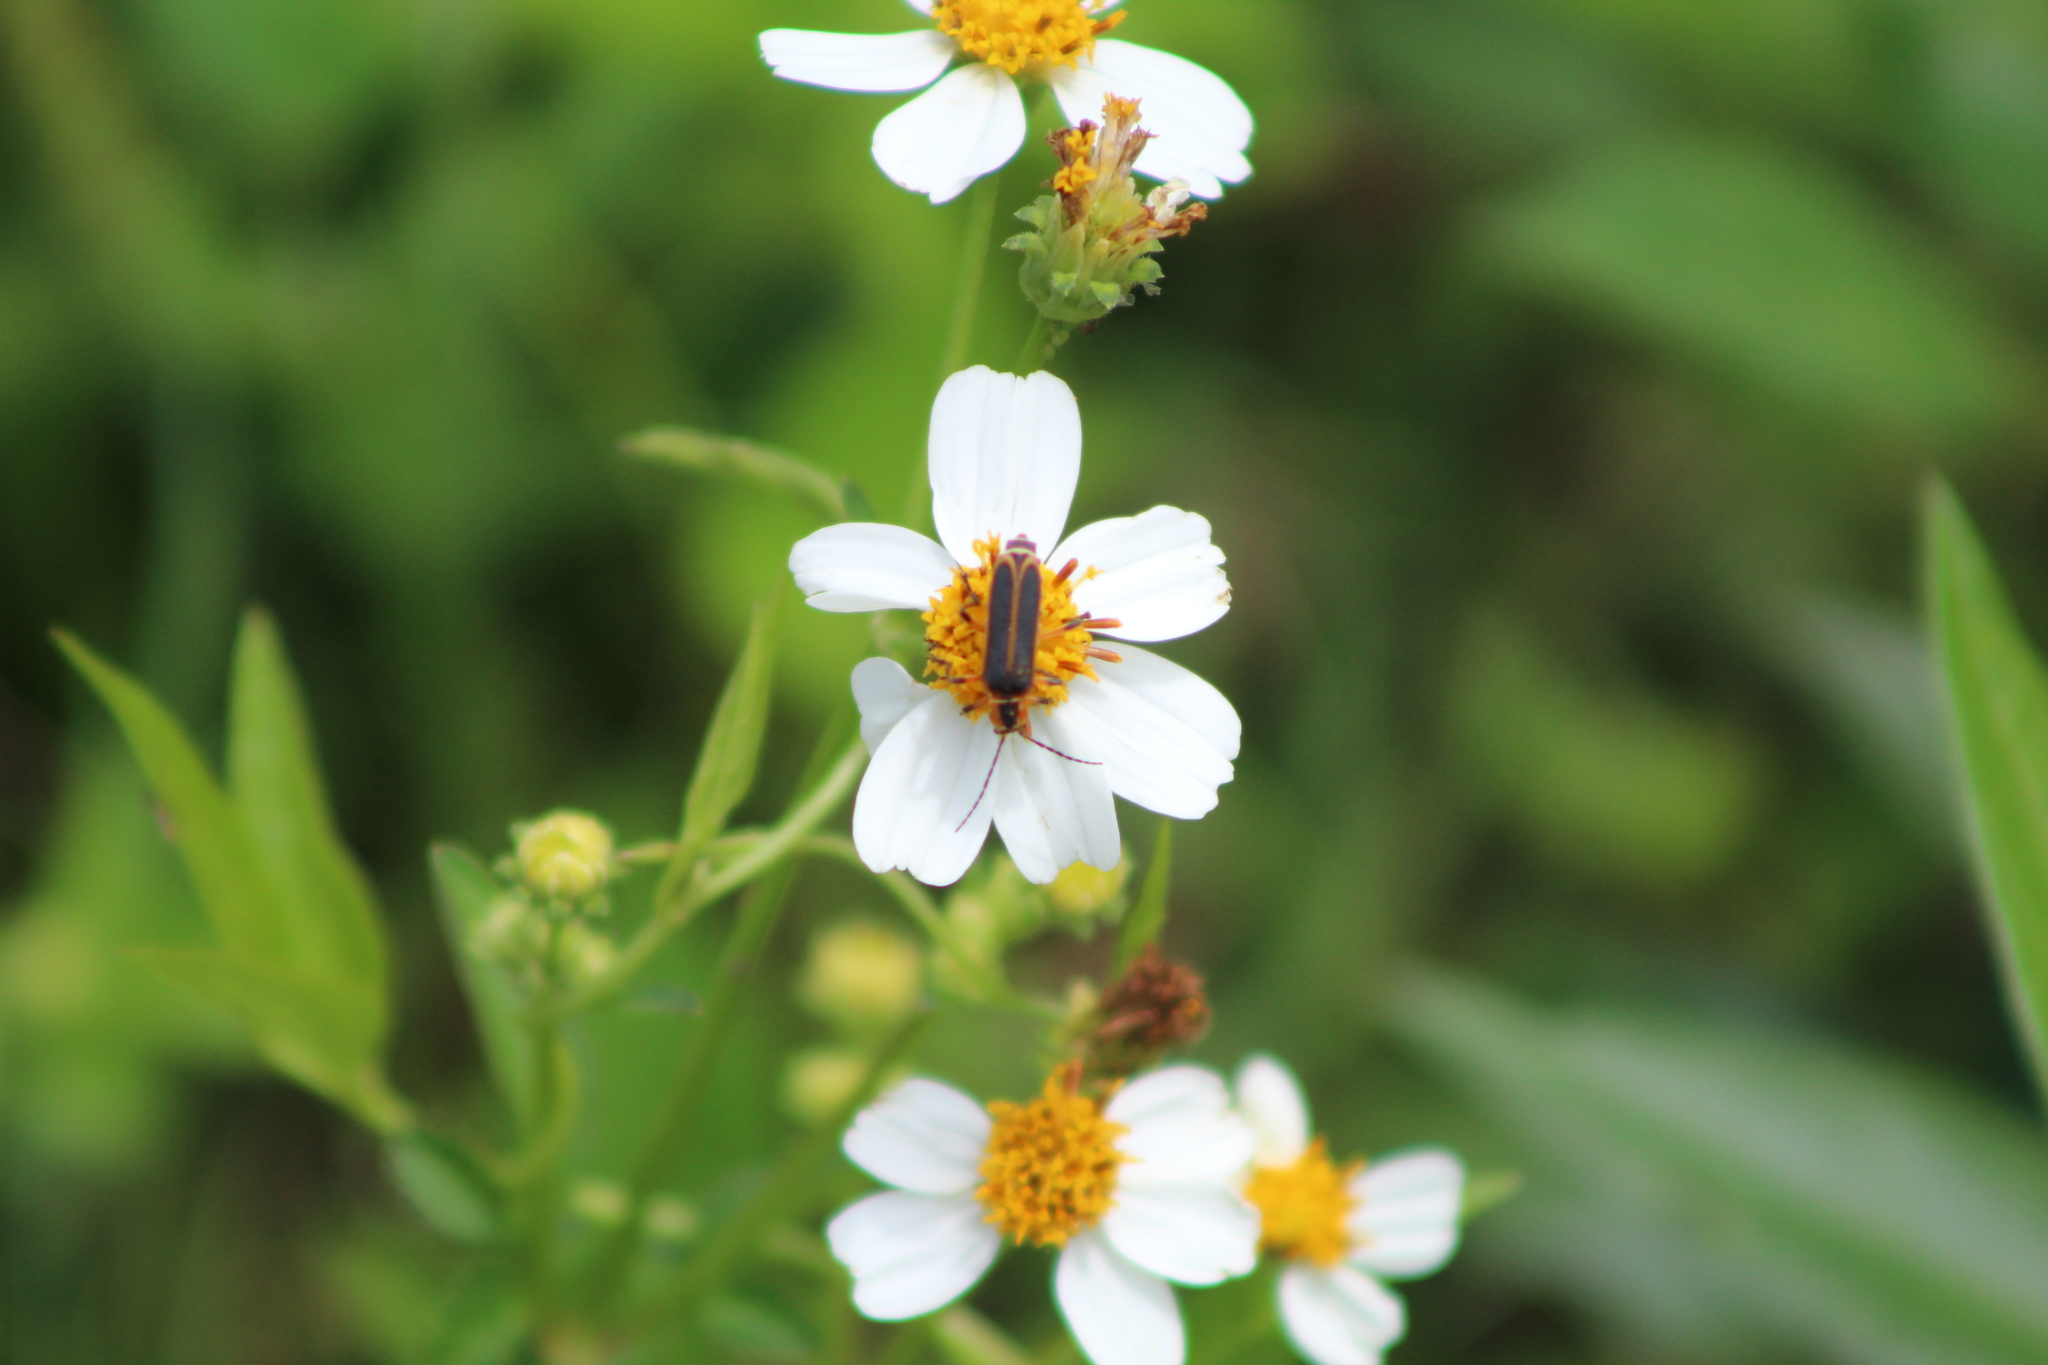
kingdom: Animalia
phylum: Arthropoda
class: Insecta
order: Coleoptera
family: Cantharidae
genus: Chauliognathus
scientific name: Chauliognathus marginatus
